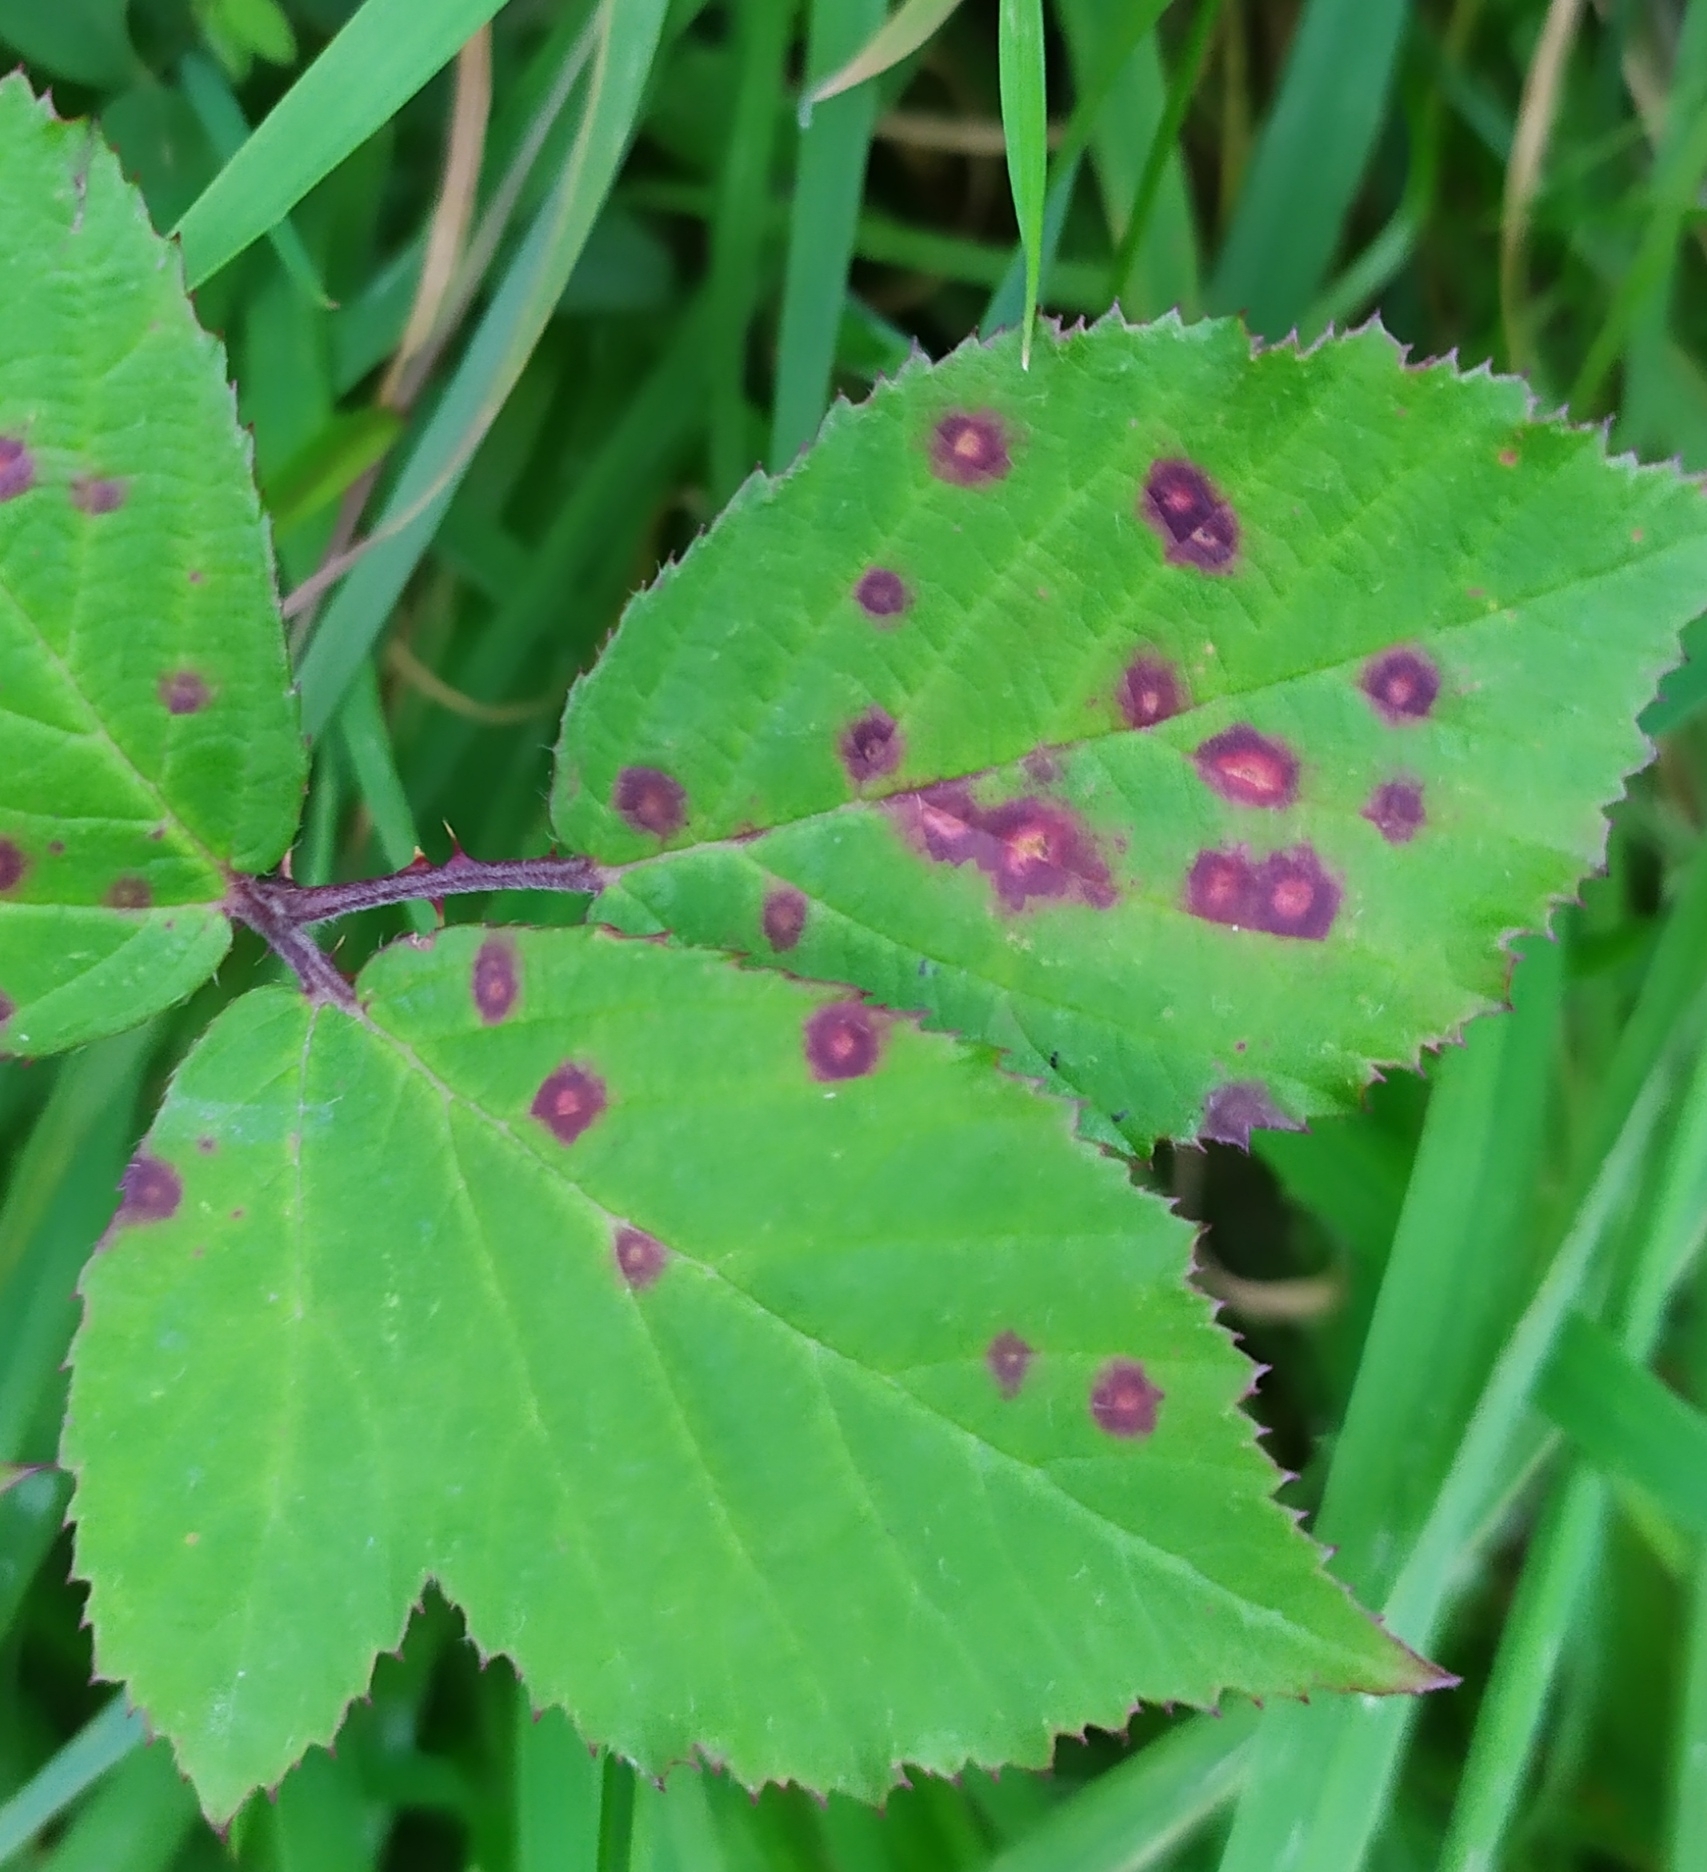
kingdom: Fungi
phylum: Basidiomycota
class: Pucciniomycetes
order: Pucciniales
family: Phragmidiaceae
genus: Phragmidium
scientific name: Phragmidium violaceum
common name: Violet bramble rust
